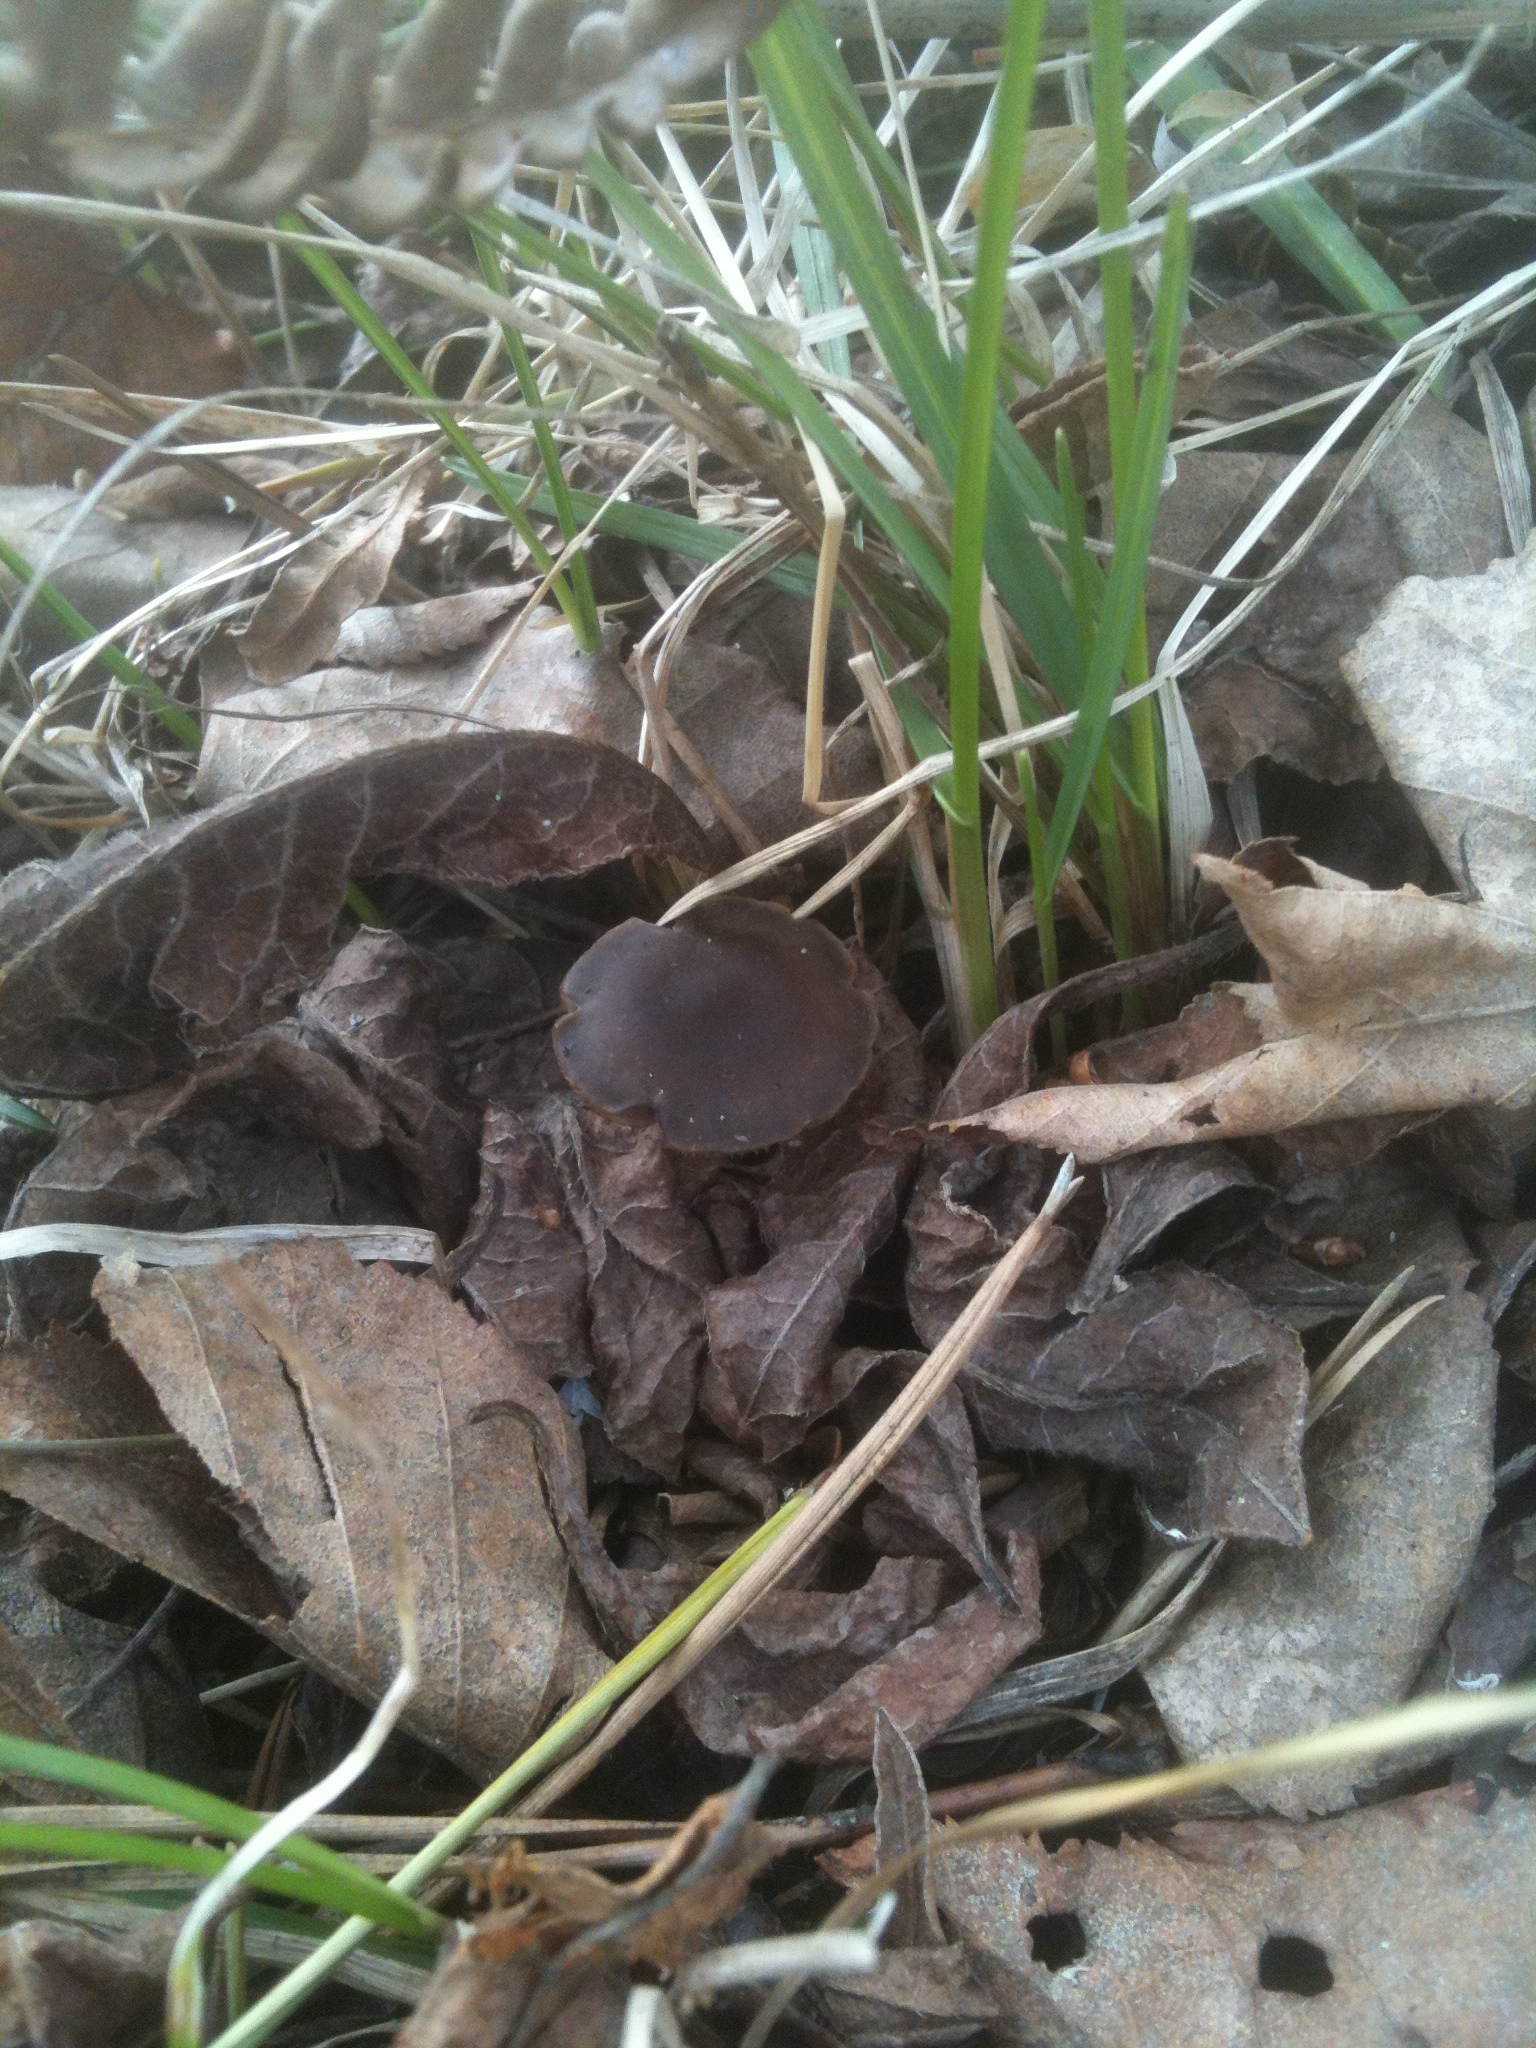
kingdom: Fungi
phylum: Basidiomycota
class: Agaricomycetes
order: Agaricales
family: Physalacriaceae
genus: Strobilurus
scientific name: Strobilurus stephanocystis
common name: Russian conecap
